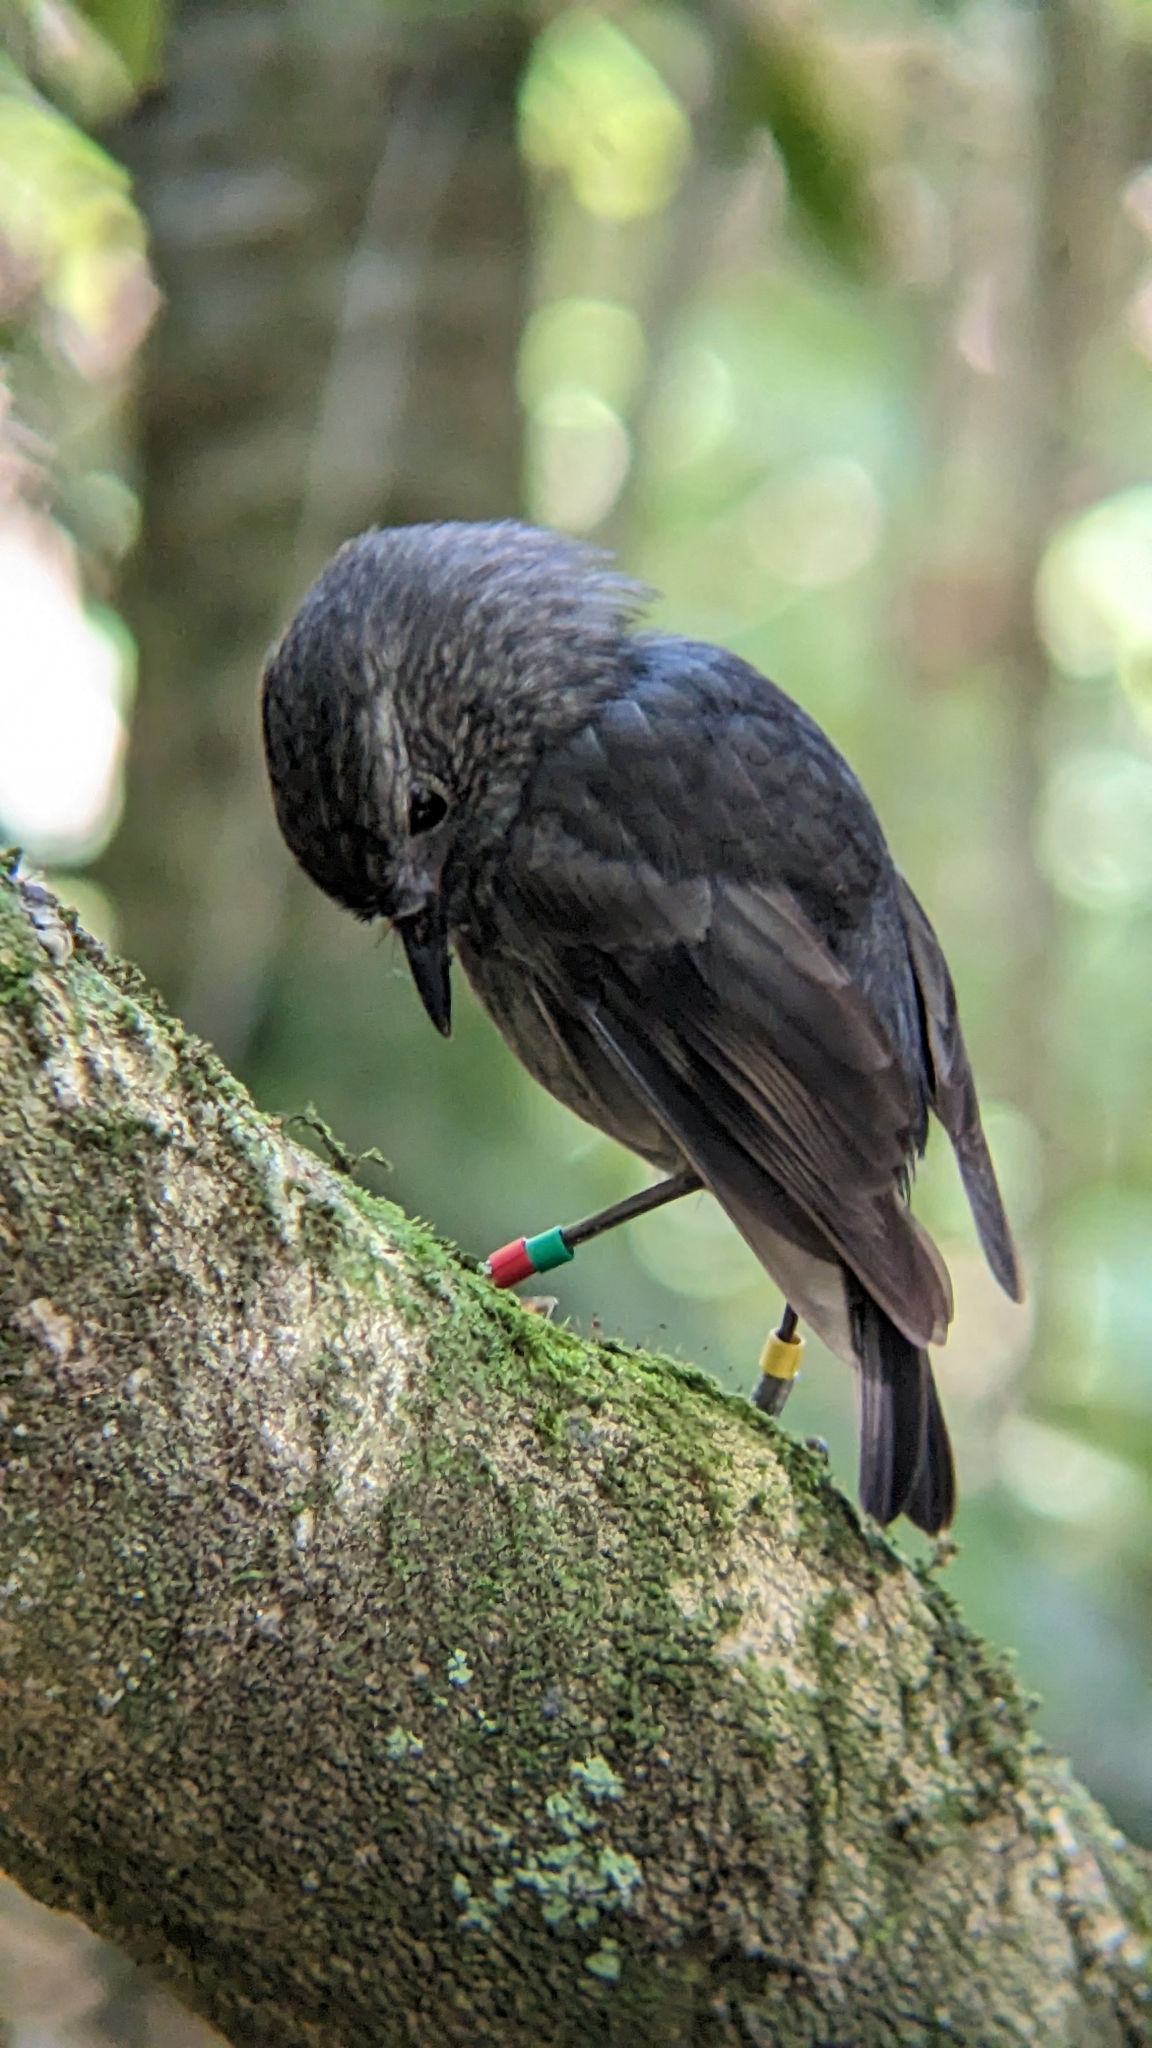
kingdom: Animalia
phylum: Chordata
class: Aves
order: Passeriformes
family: Petroicidae
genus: Petroica
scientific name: Petroica australis
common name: New zealand robin
